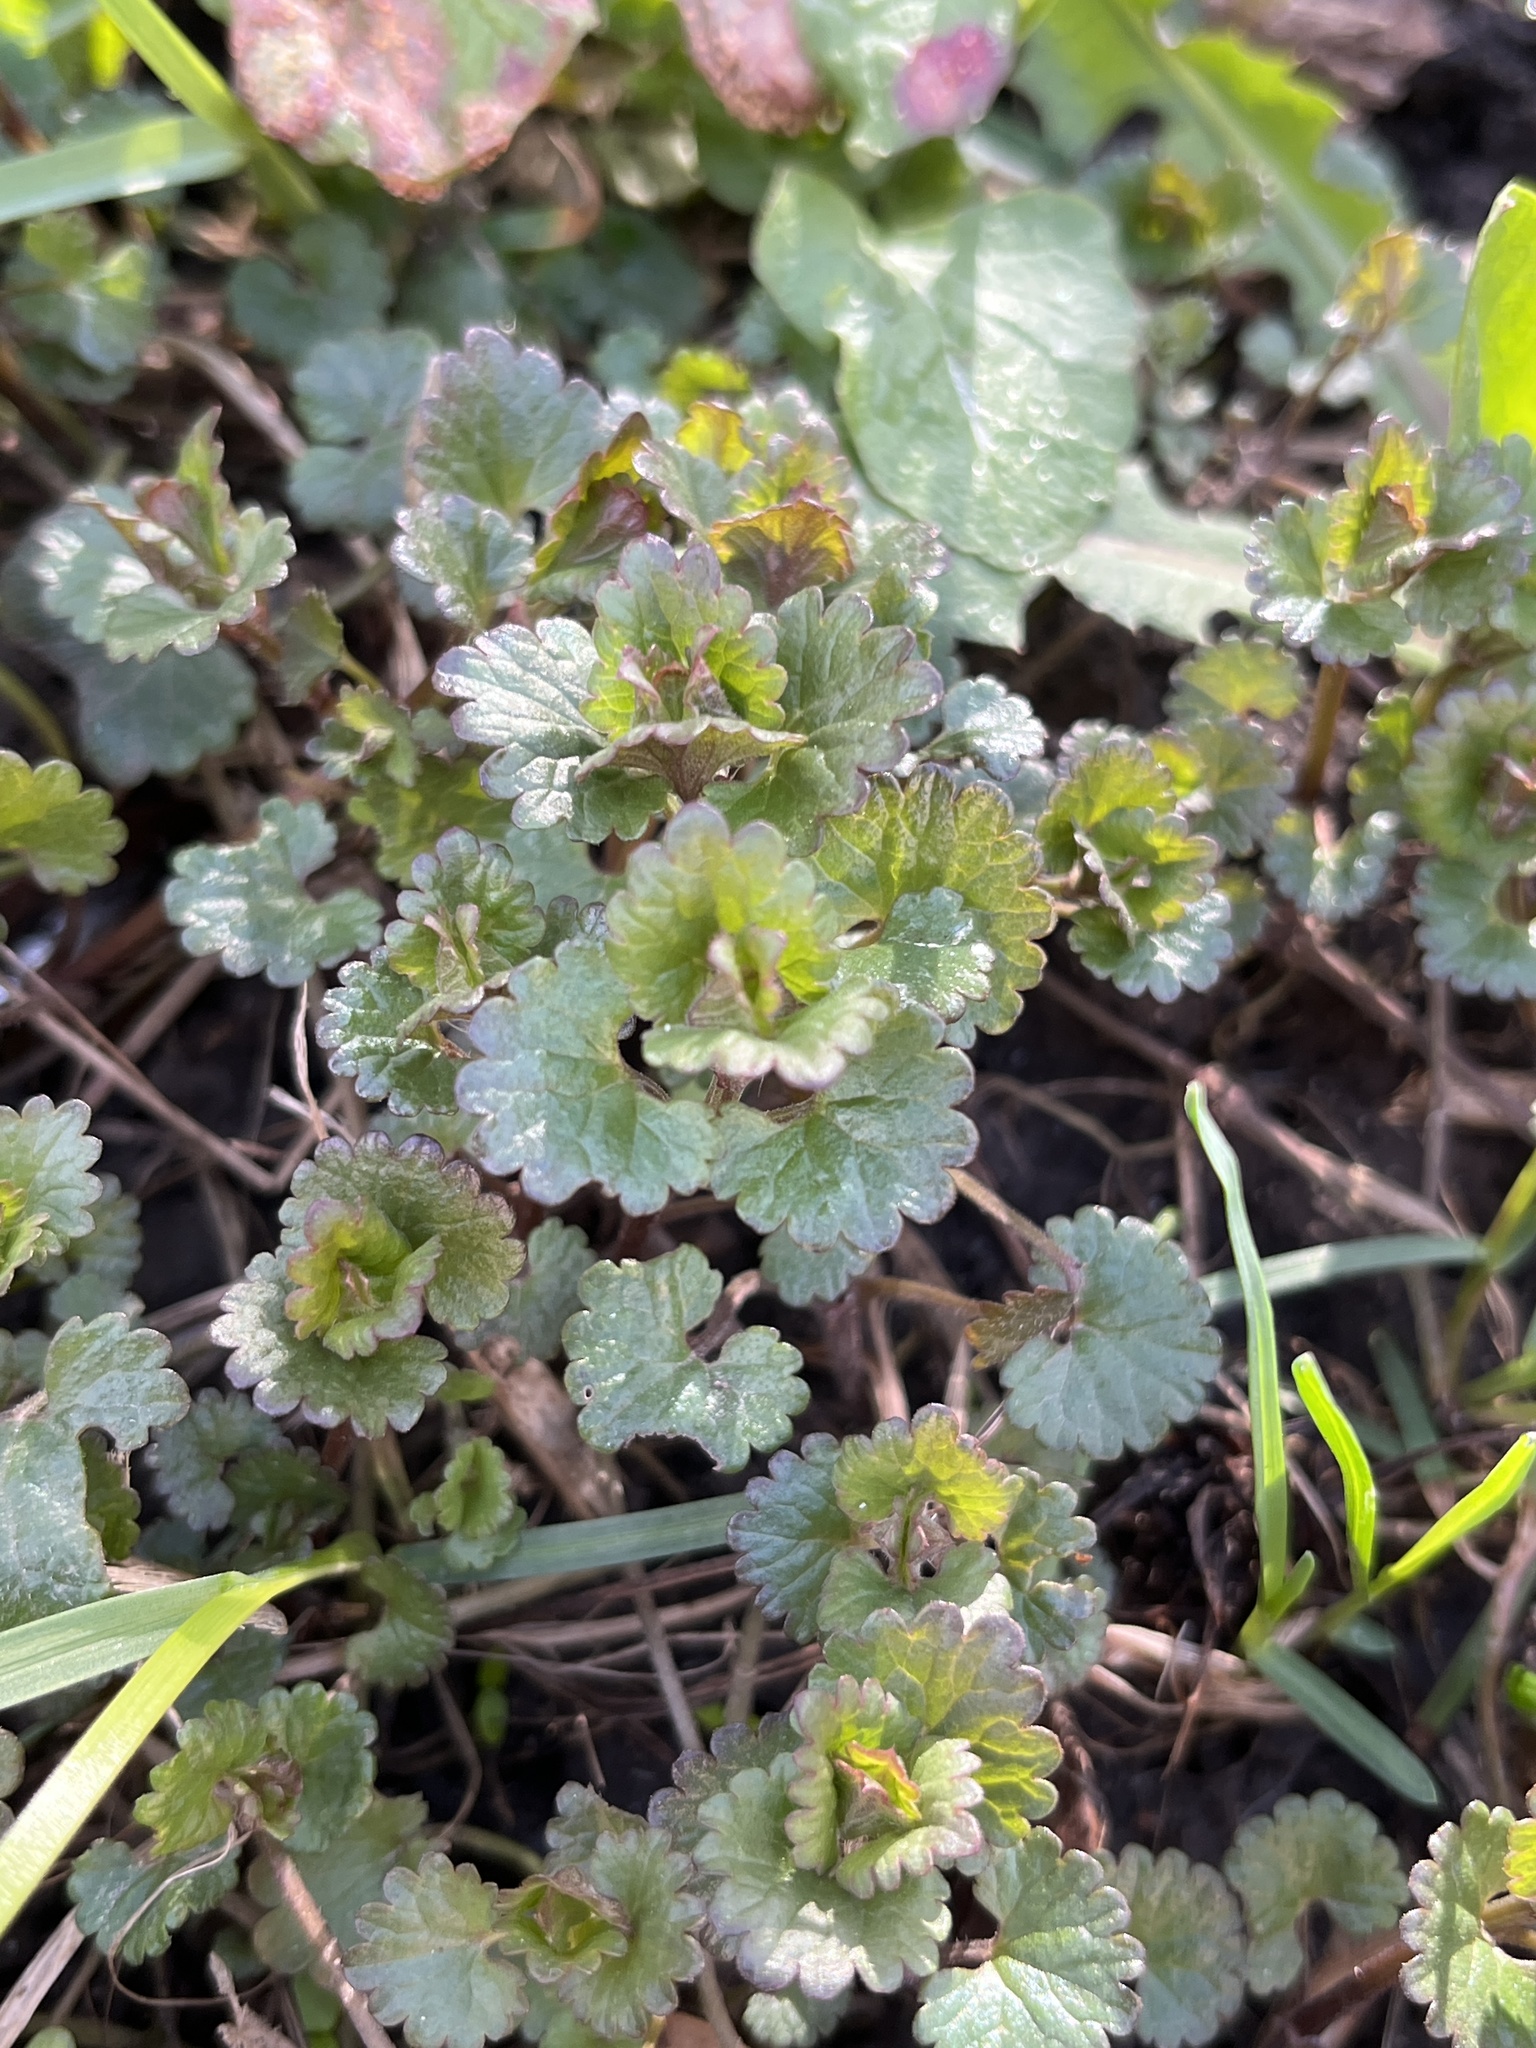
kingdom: Plantae
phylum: Tracheophyta
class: Magnoliopsida
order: Lamiales
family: Lamiaceae
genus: Glechoma
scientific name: Glechoma hederacea
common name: Ground ivy
